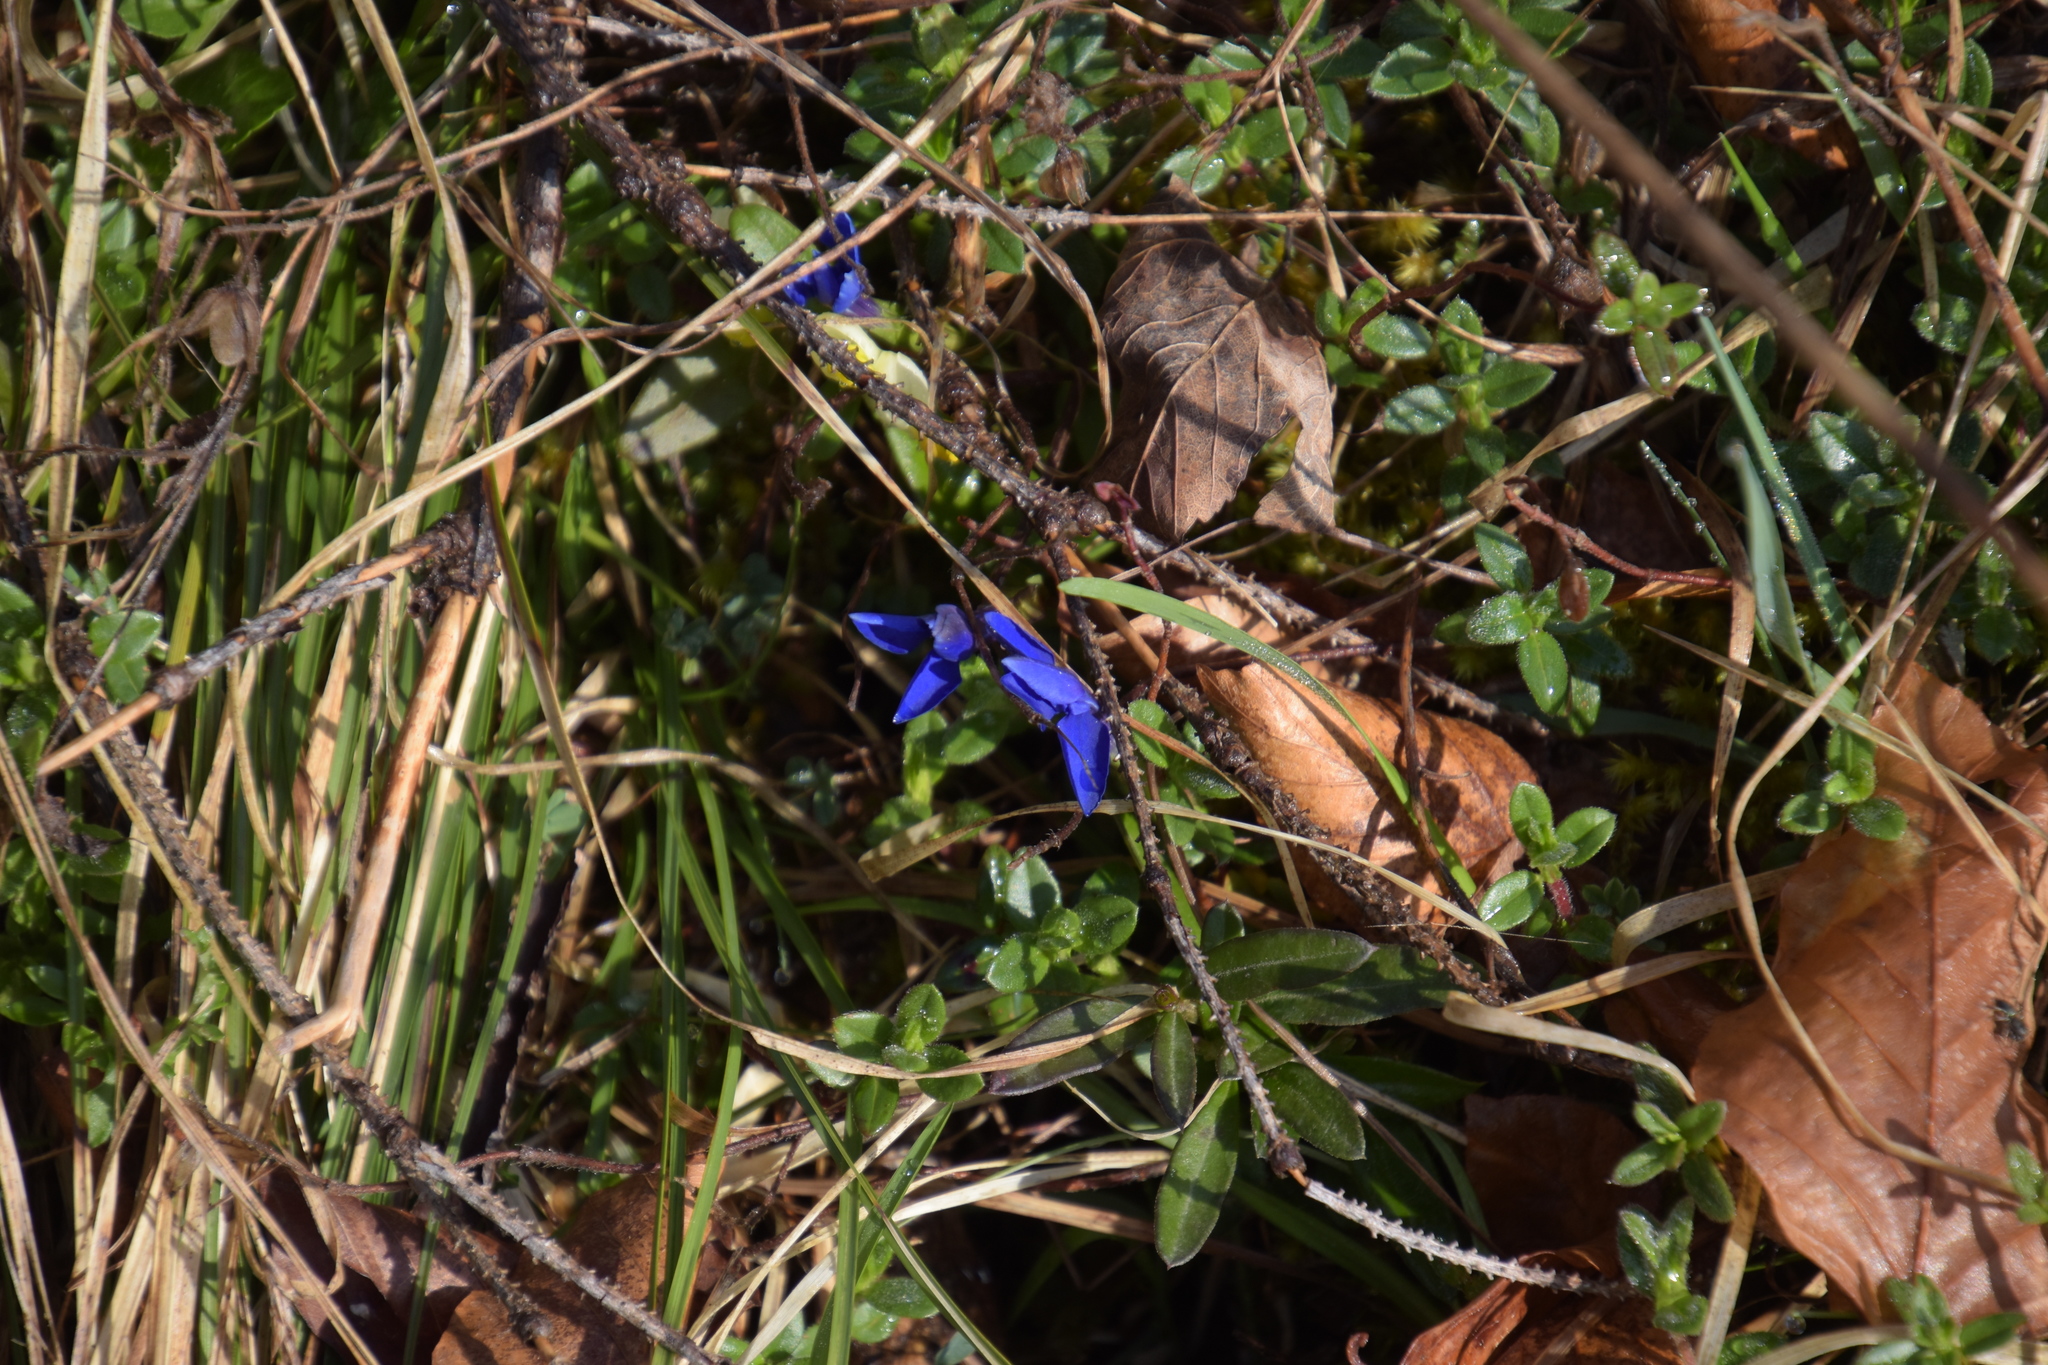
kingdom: Plantae
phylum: Tracheophyta
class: Magnoliopsida
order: Gentianales
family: Gentianaceae
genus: Gentiana
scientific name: Gentiana verna
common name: Spring gentian
